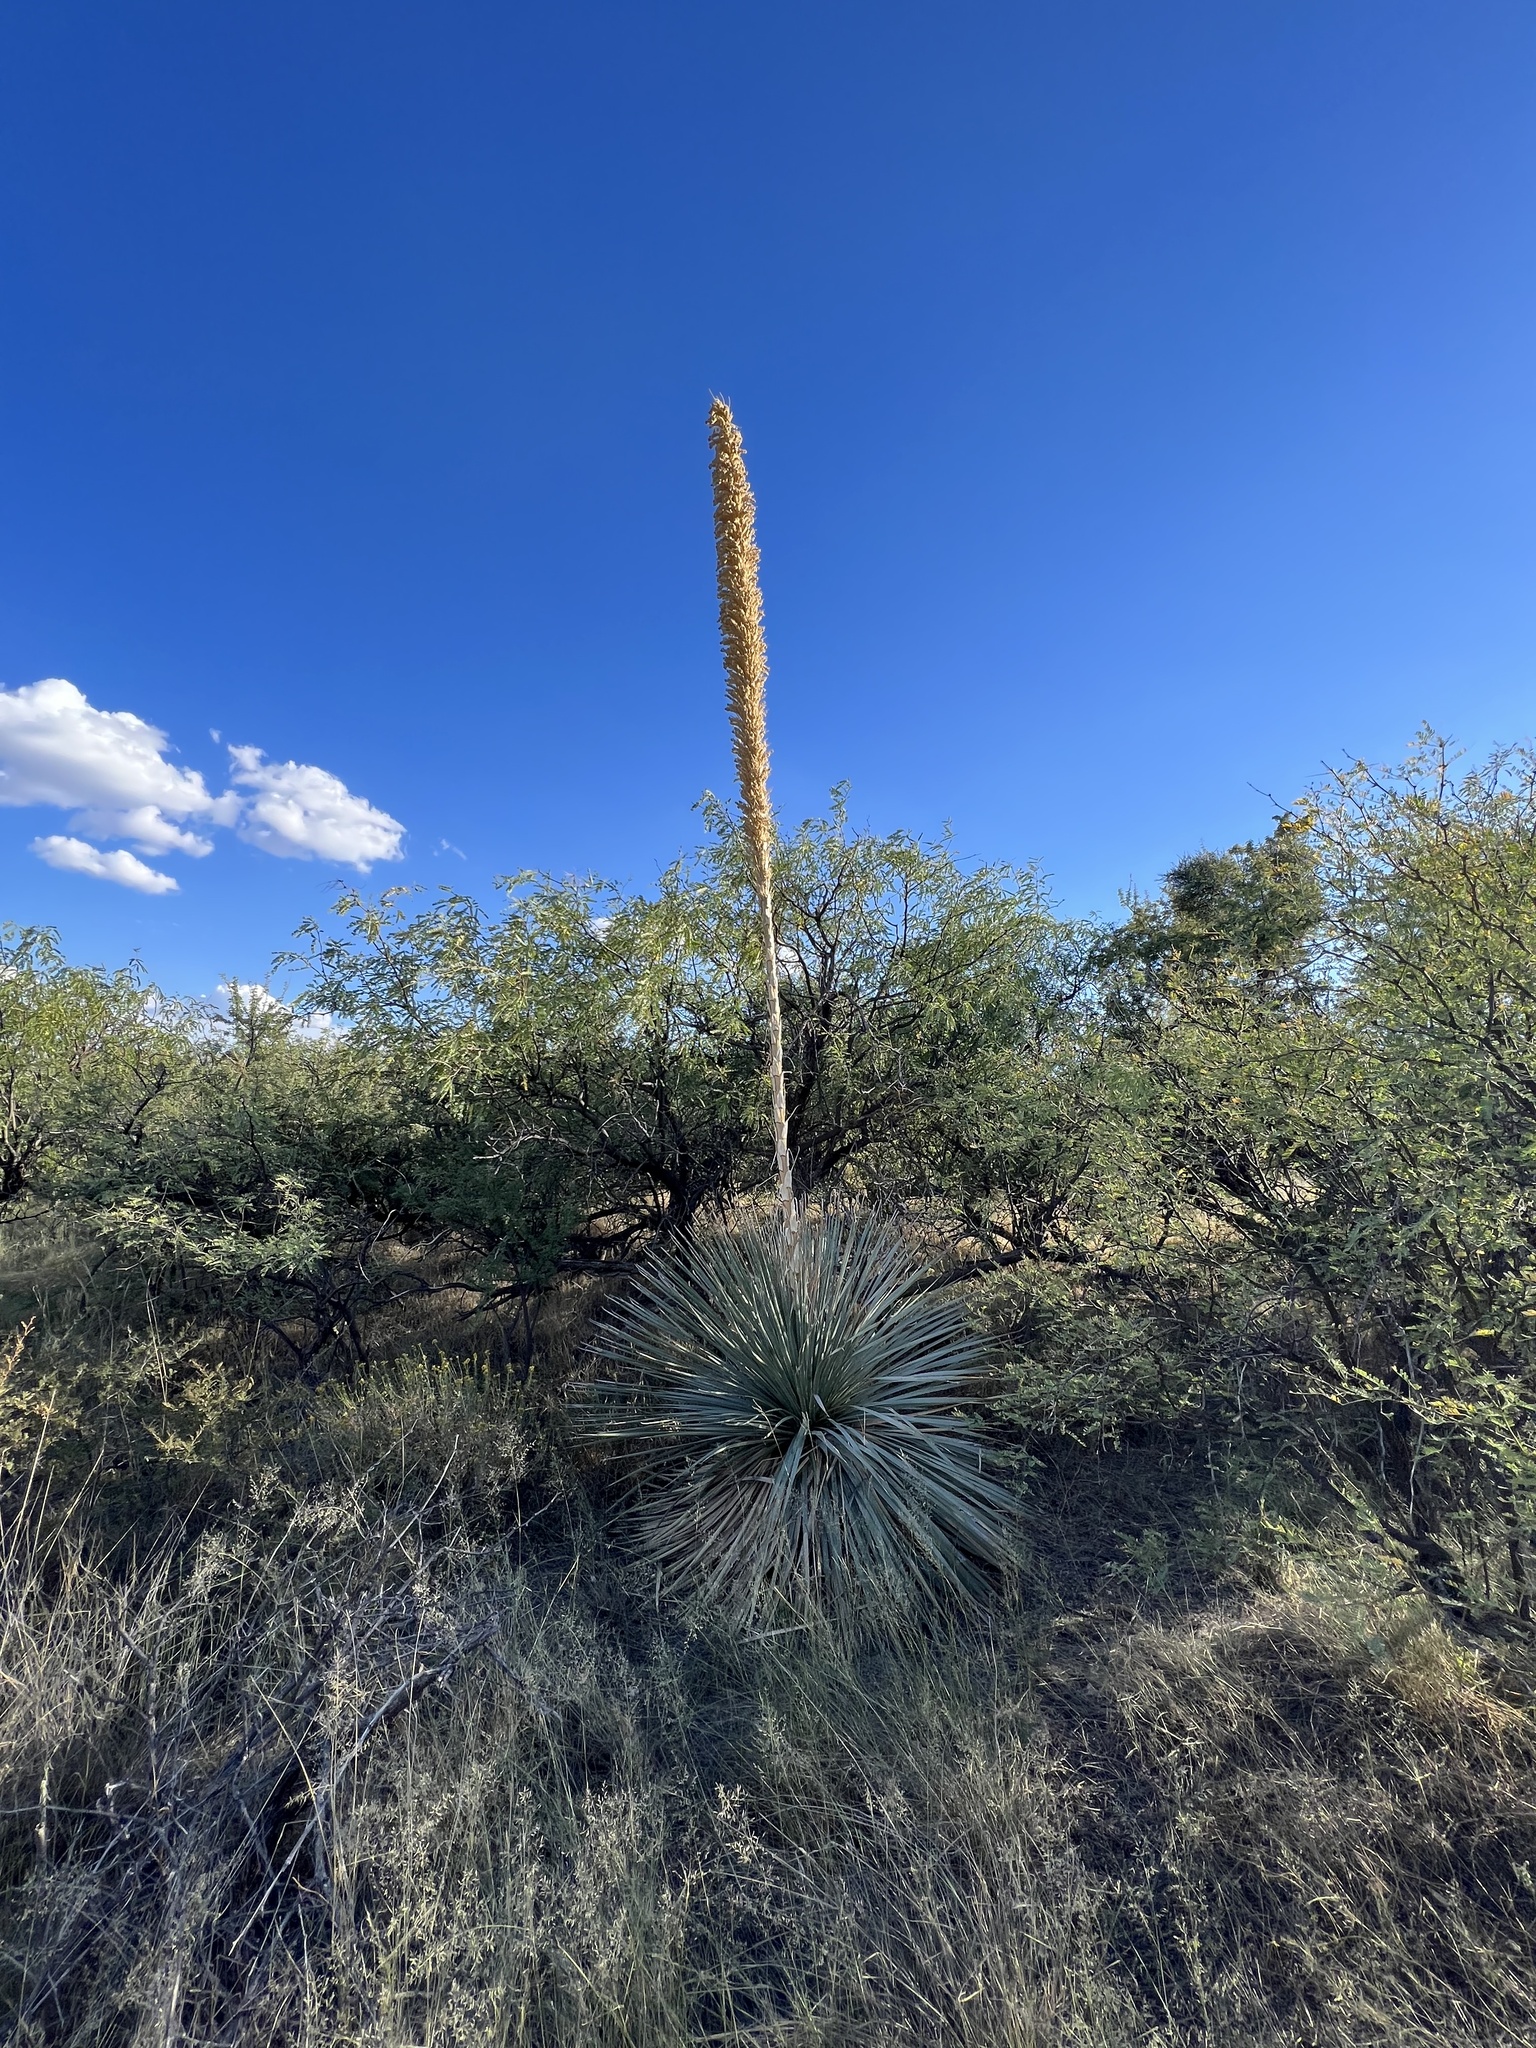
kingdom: Plantae
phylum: Tracheophyta
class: Liliopsida
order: Asparagales
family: Asparagaceae
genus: Dasylirion
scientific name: Dasylirion wheeleri
